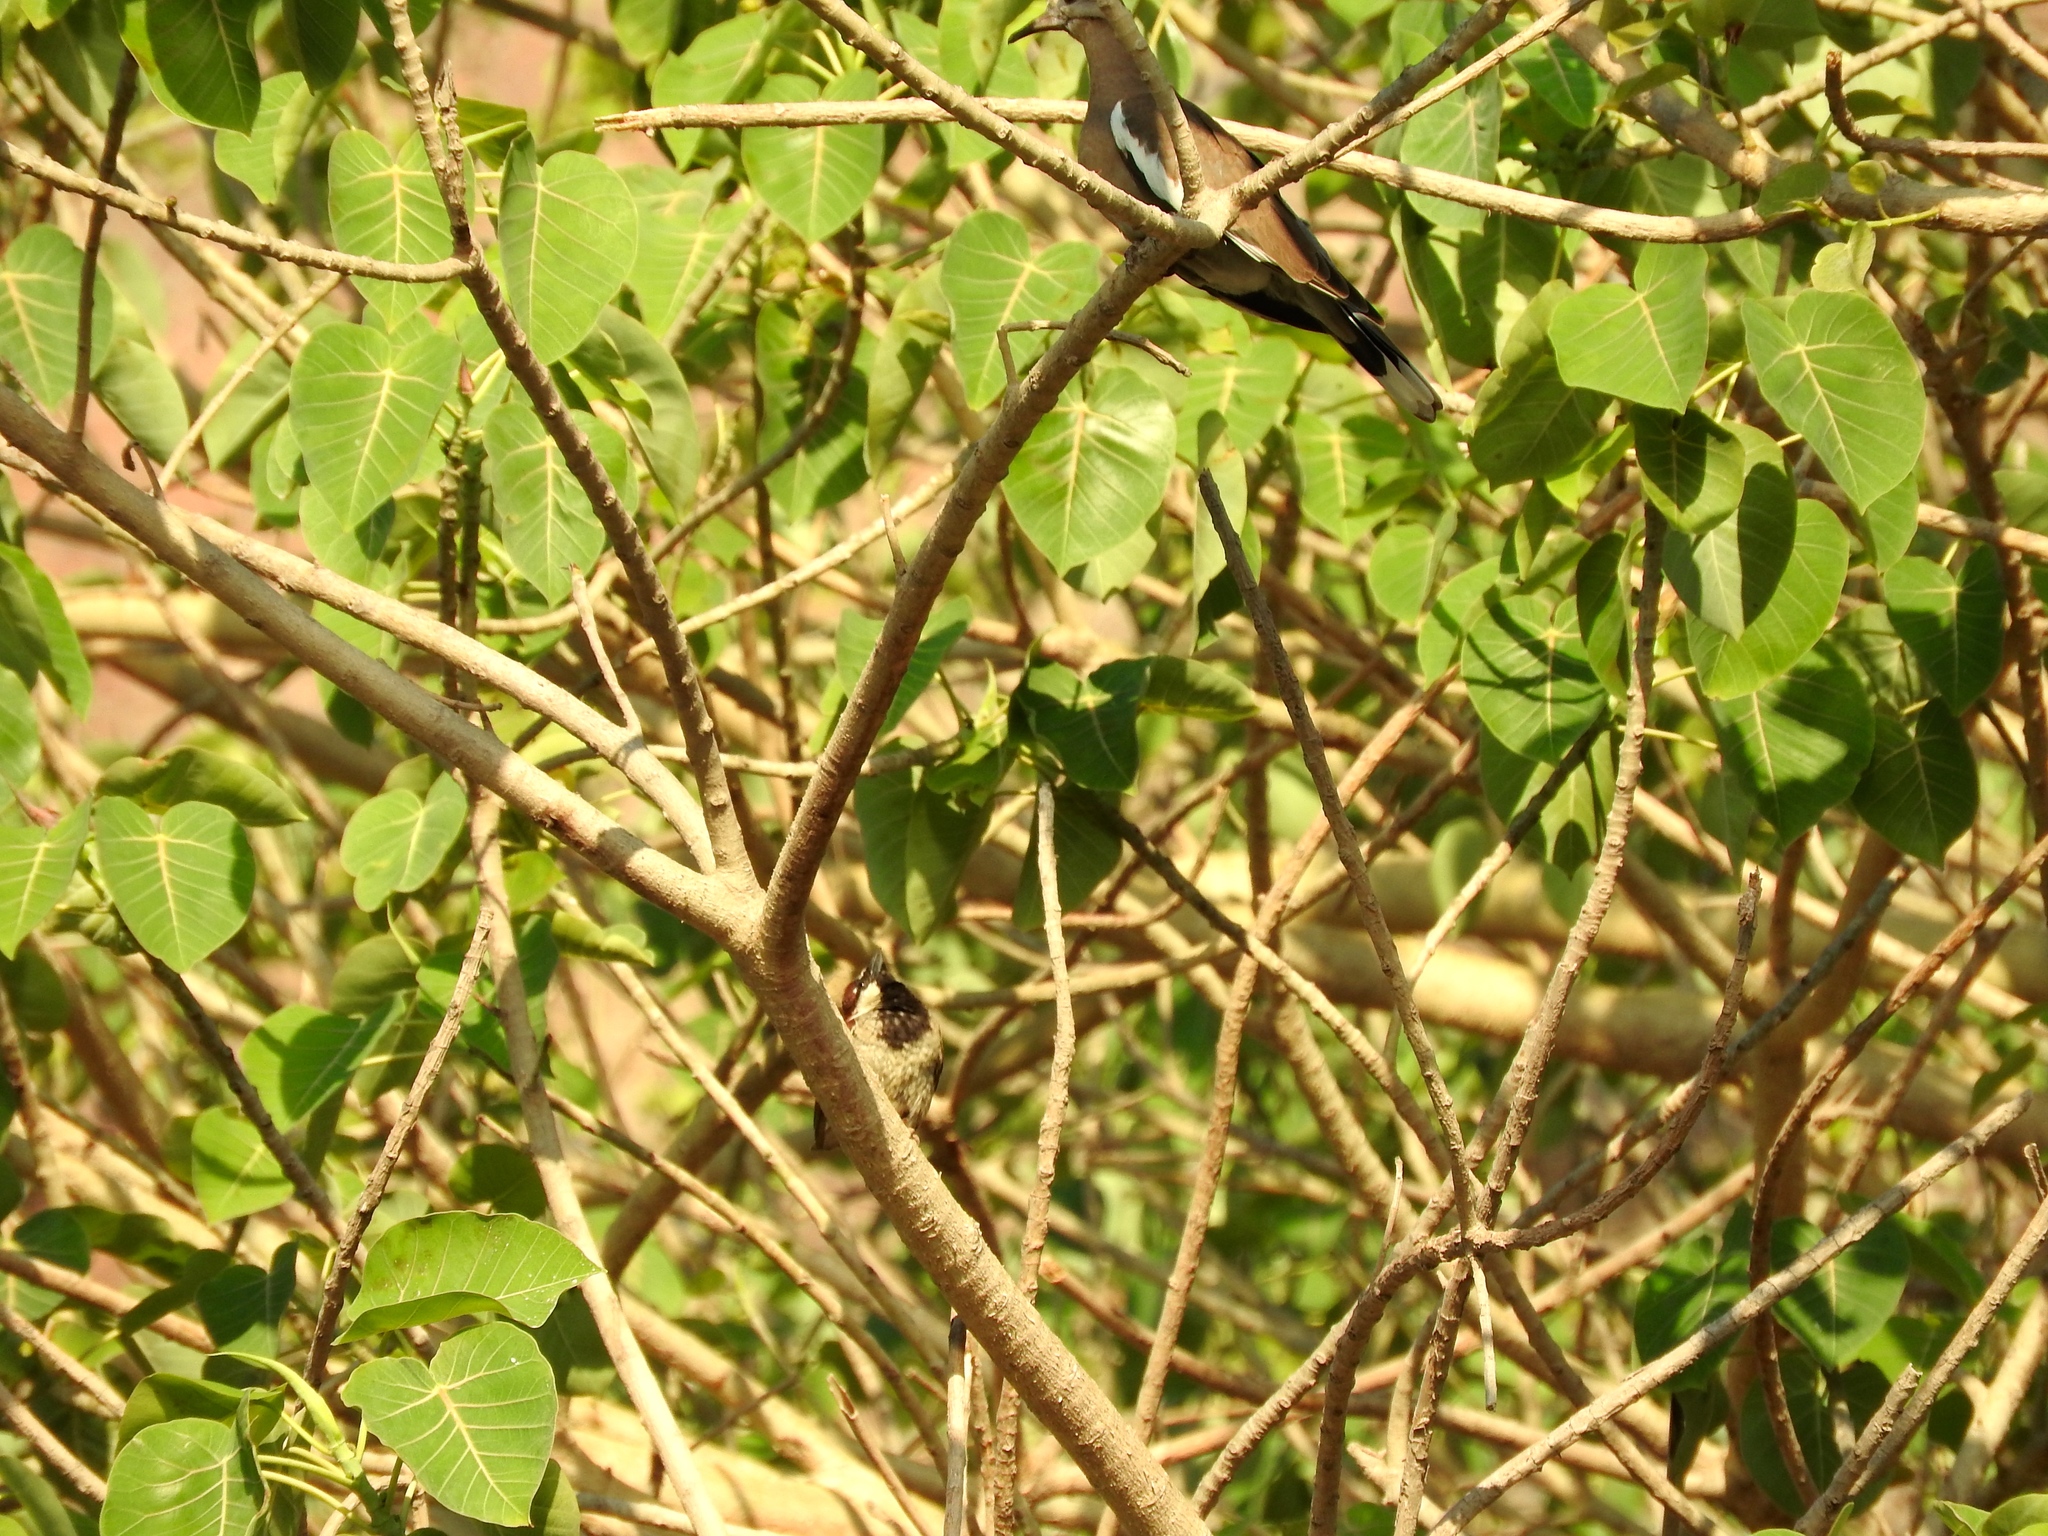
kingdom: Plantae
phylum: Tracheophyta
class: Magnoliopsida
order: Rosales
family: Moraceae
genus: Ficus
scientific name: Ficus petiolaris
